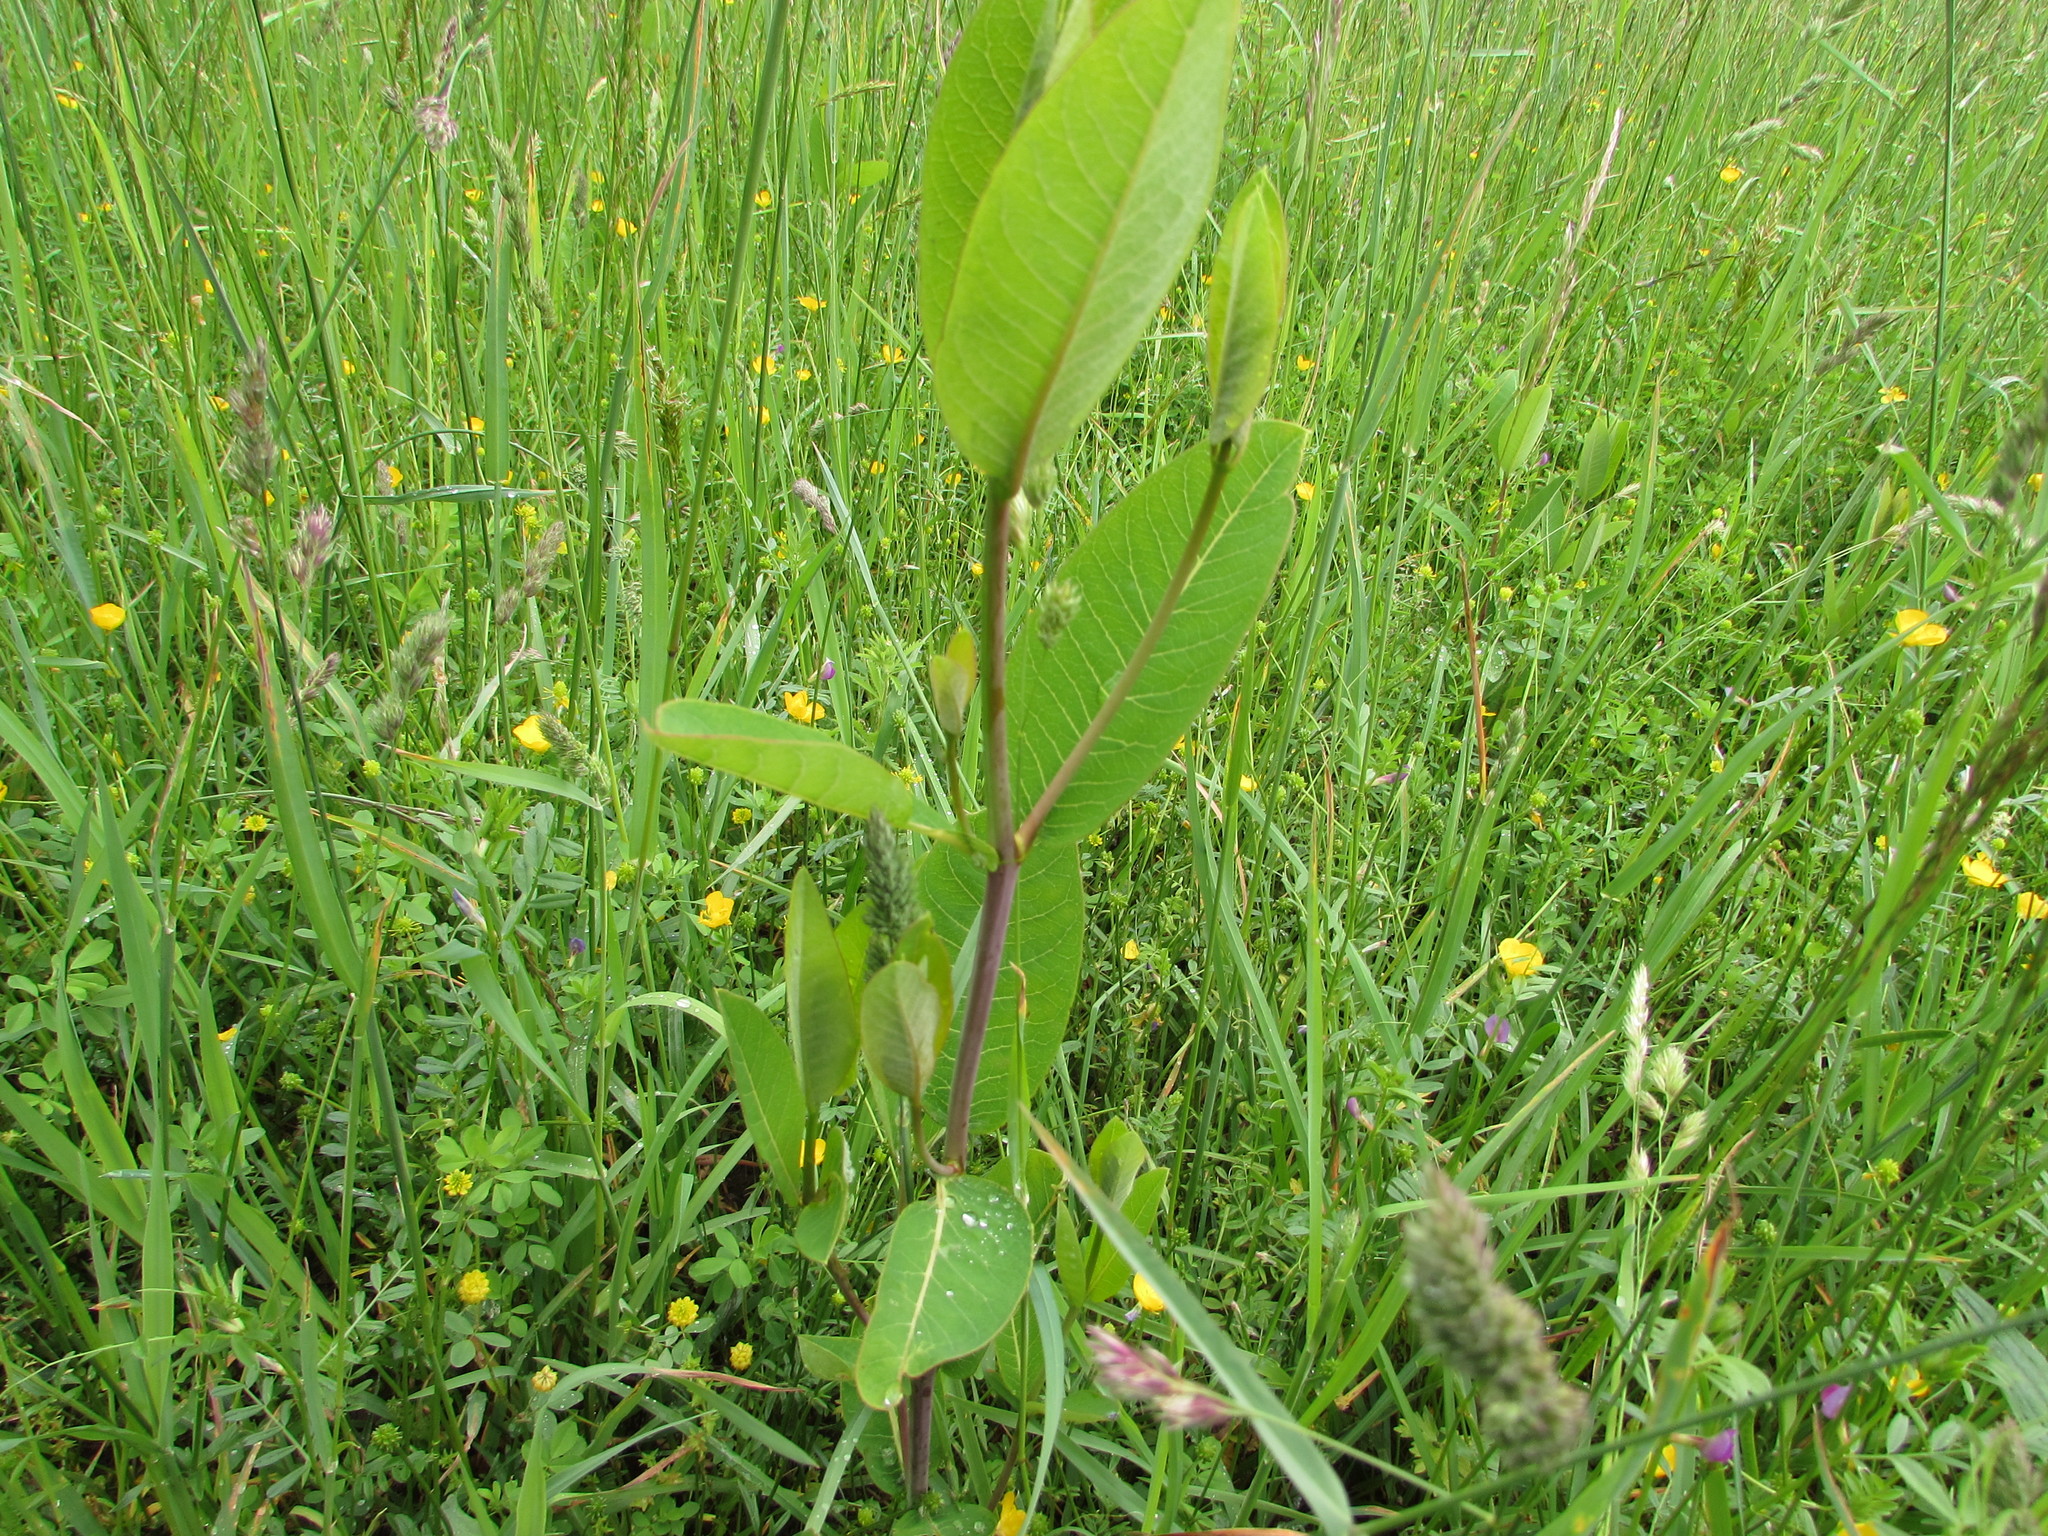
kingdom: Plantae
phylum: Tracheophyta
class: Magnoliopsida
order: Gentianales
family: Apocynaceae
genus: Asclepias
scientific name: Asclepias syriaca
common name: Common milkweed
